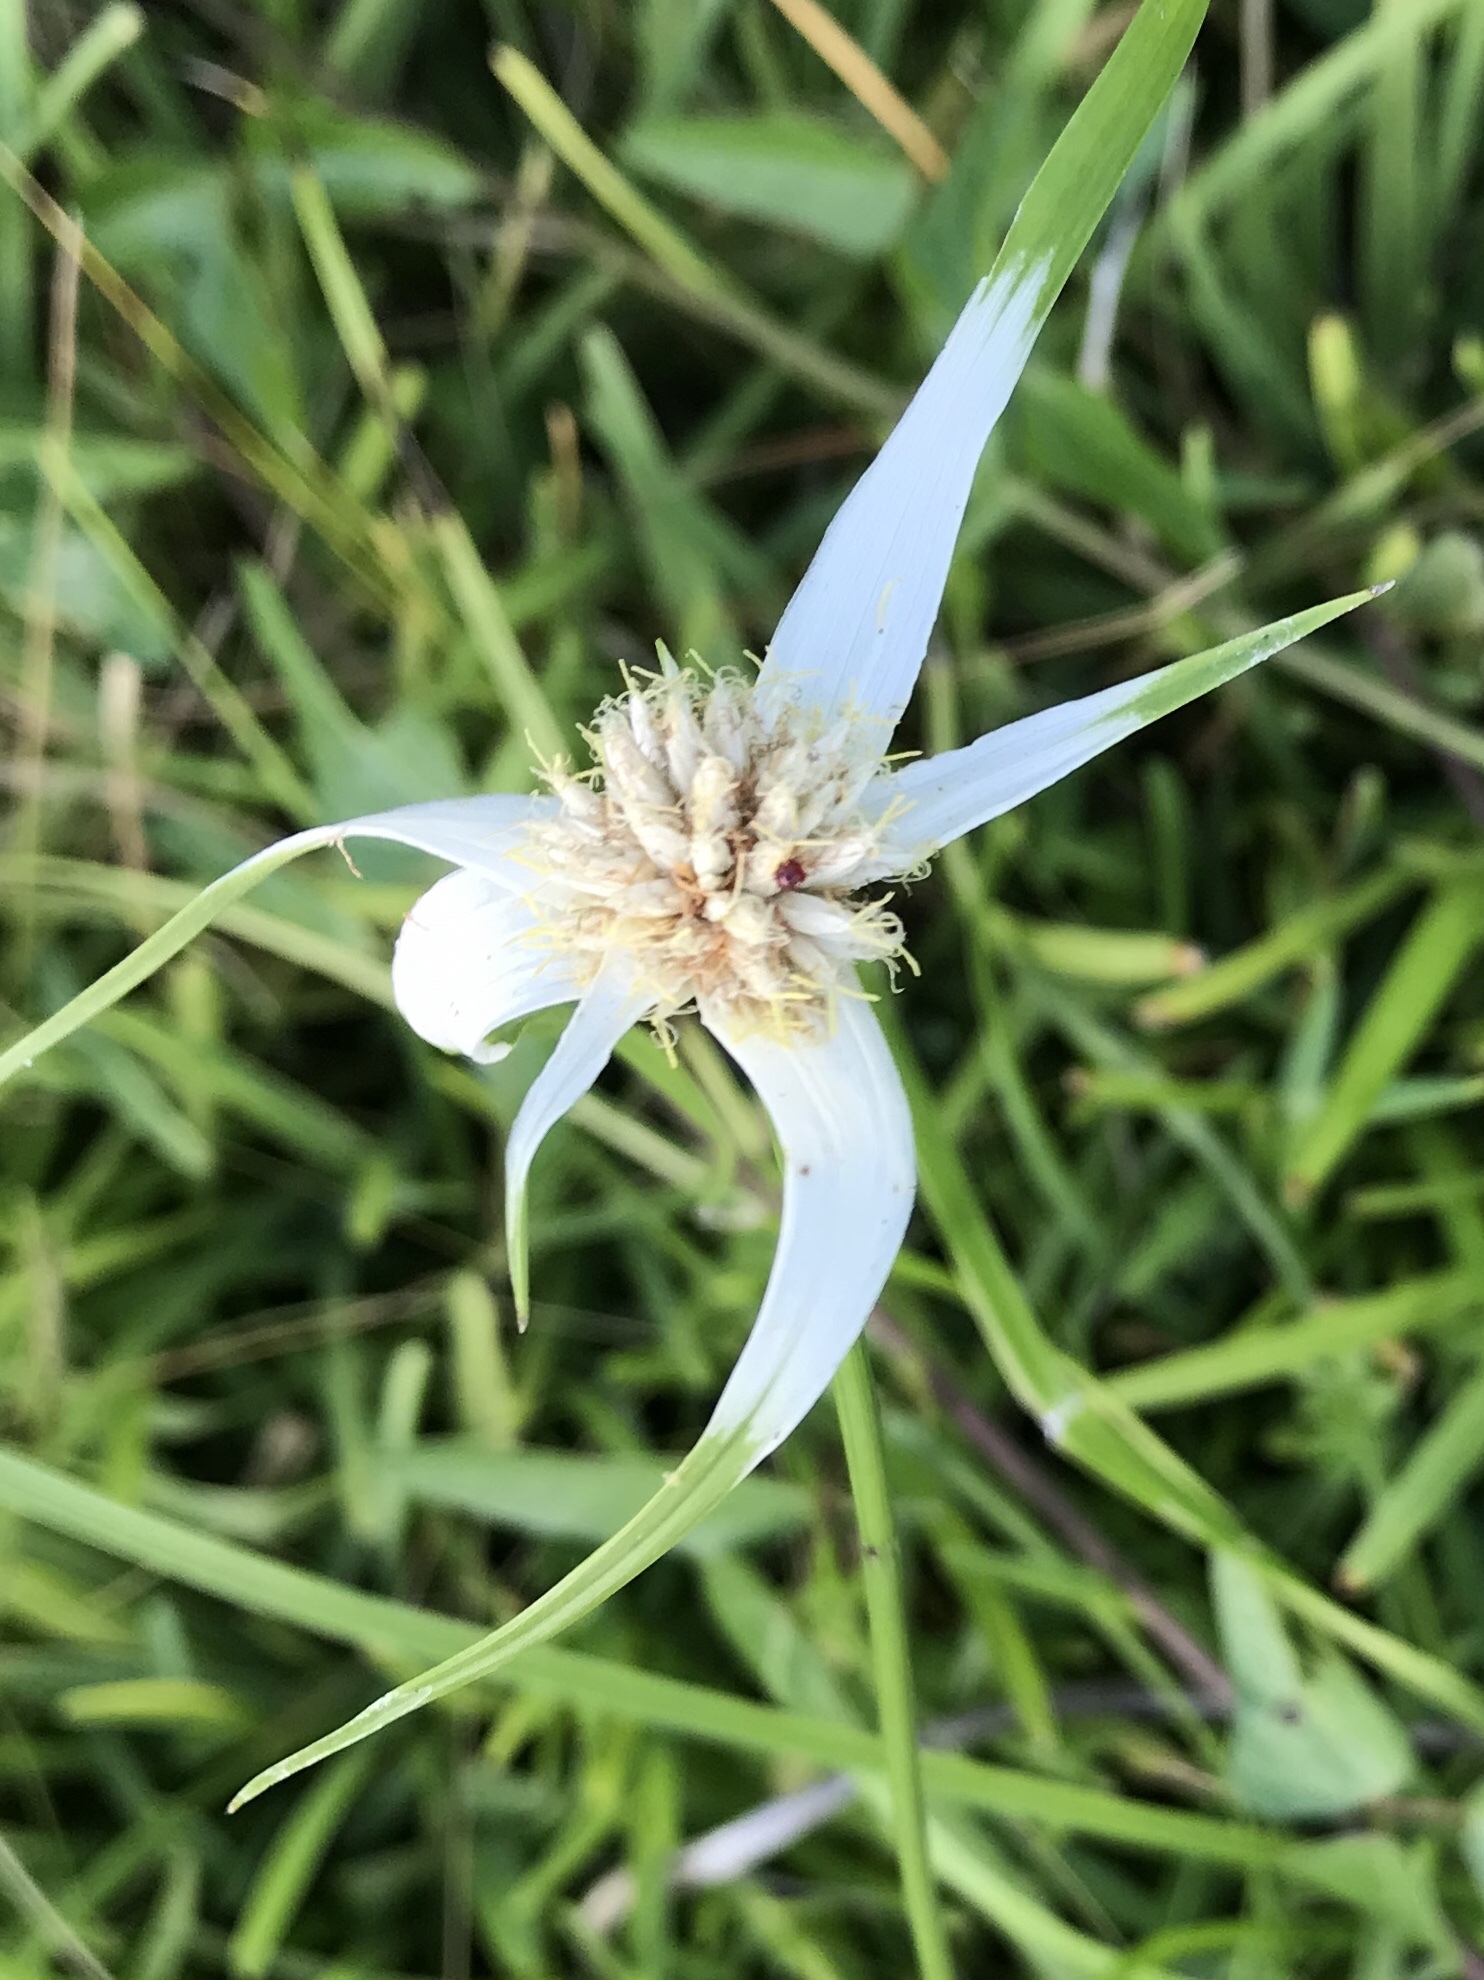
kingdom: Plantae
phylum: Tracheophyta
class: Liliopsida
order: Poales
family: Cyperaceae
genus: Rhynchospora
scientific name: Rhynchospora colorata
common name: Star sedge
